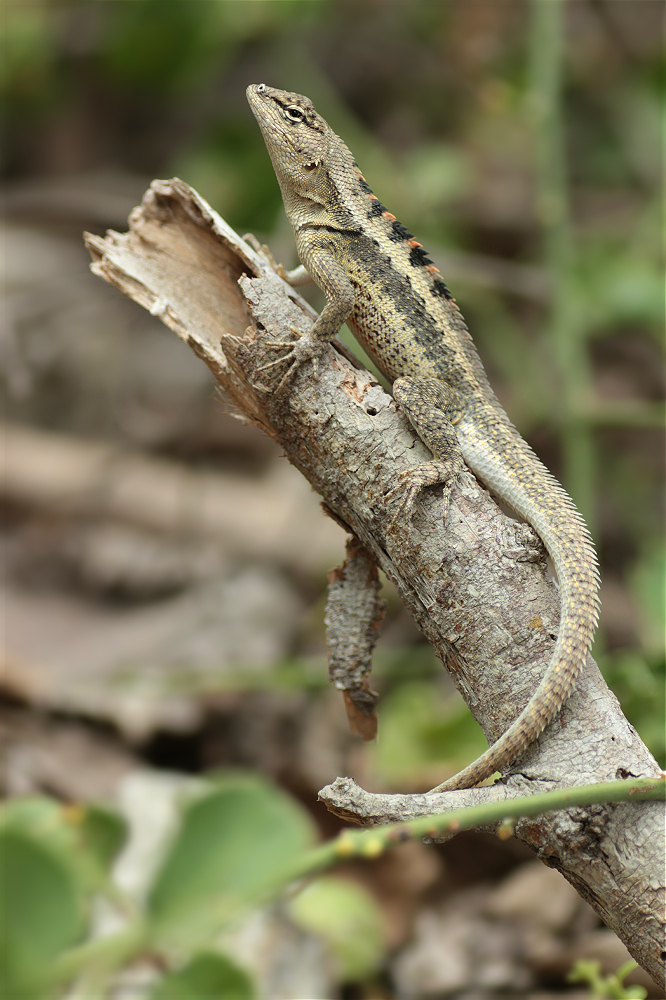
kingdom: Animalia
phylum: Chordata
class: Squamata
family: Tropiduridae
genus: Microlophus
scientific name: Microlophus occipitalis
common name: Knobbed pacific iguana
